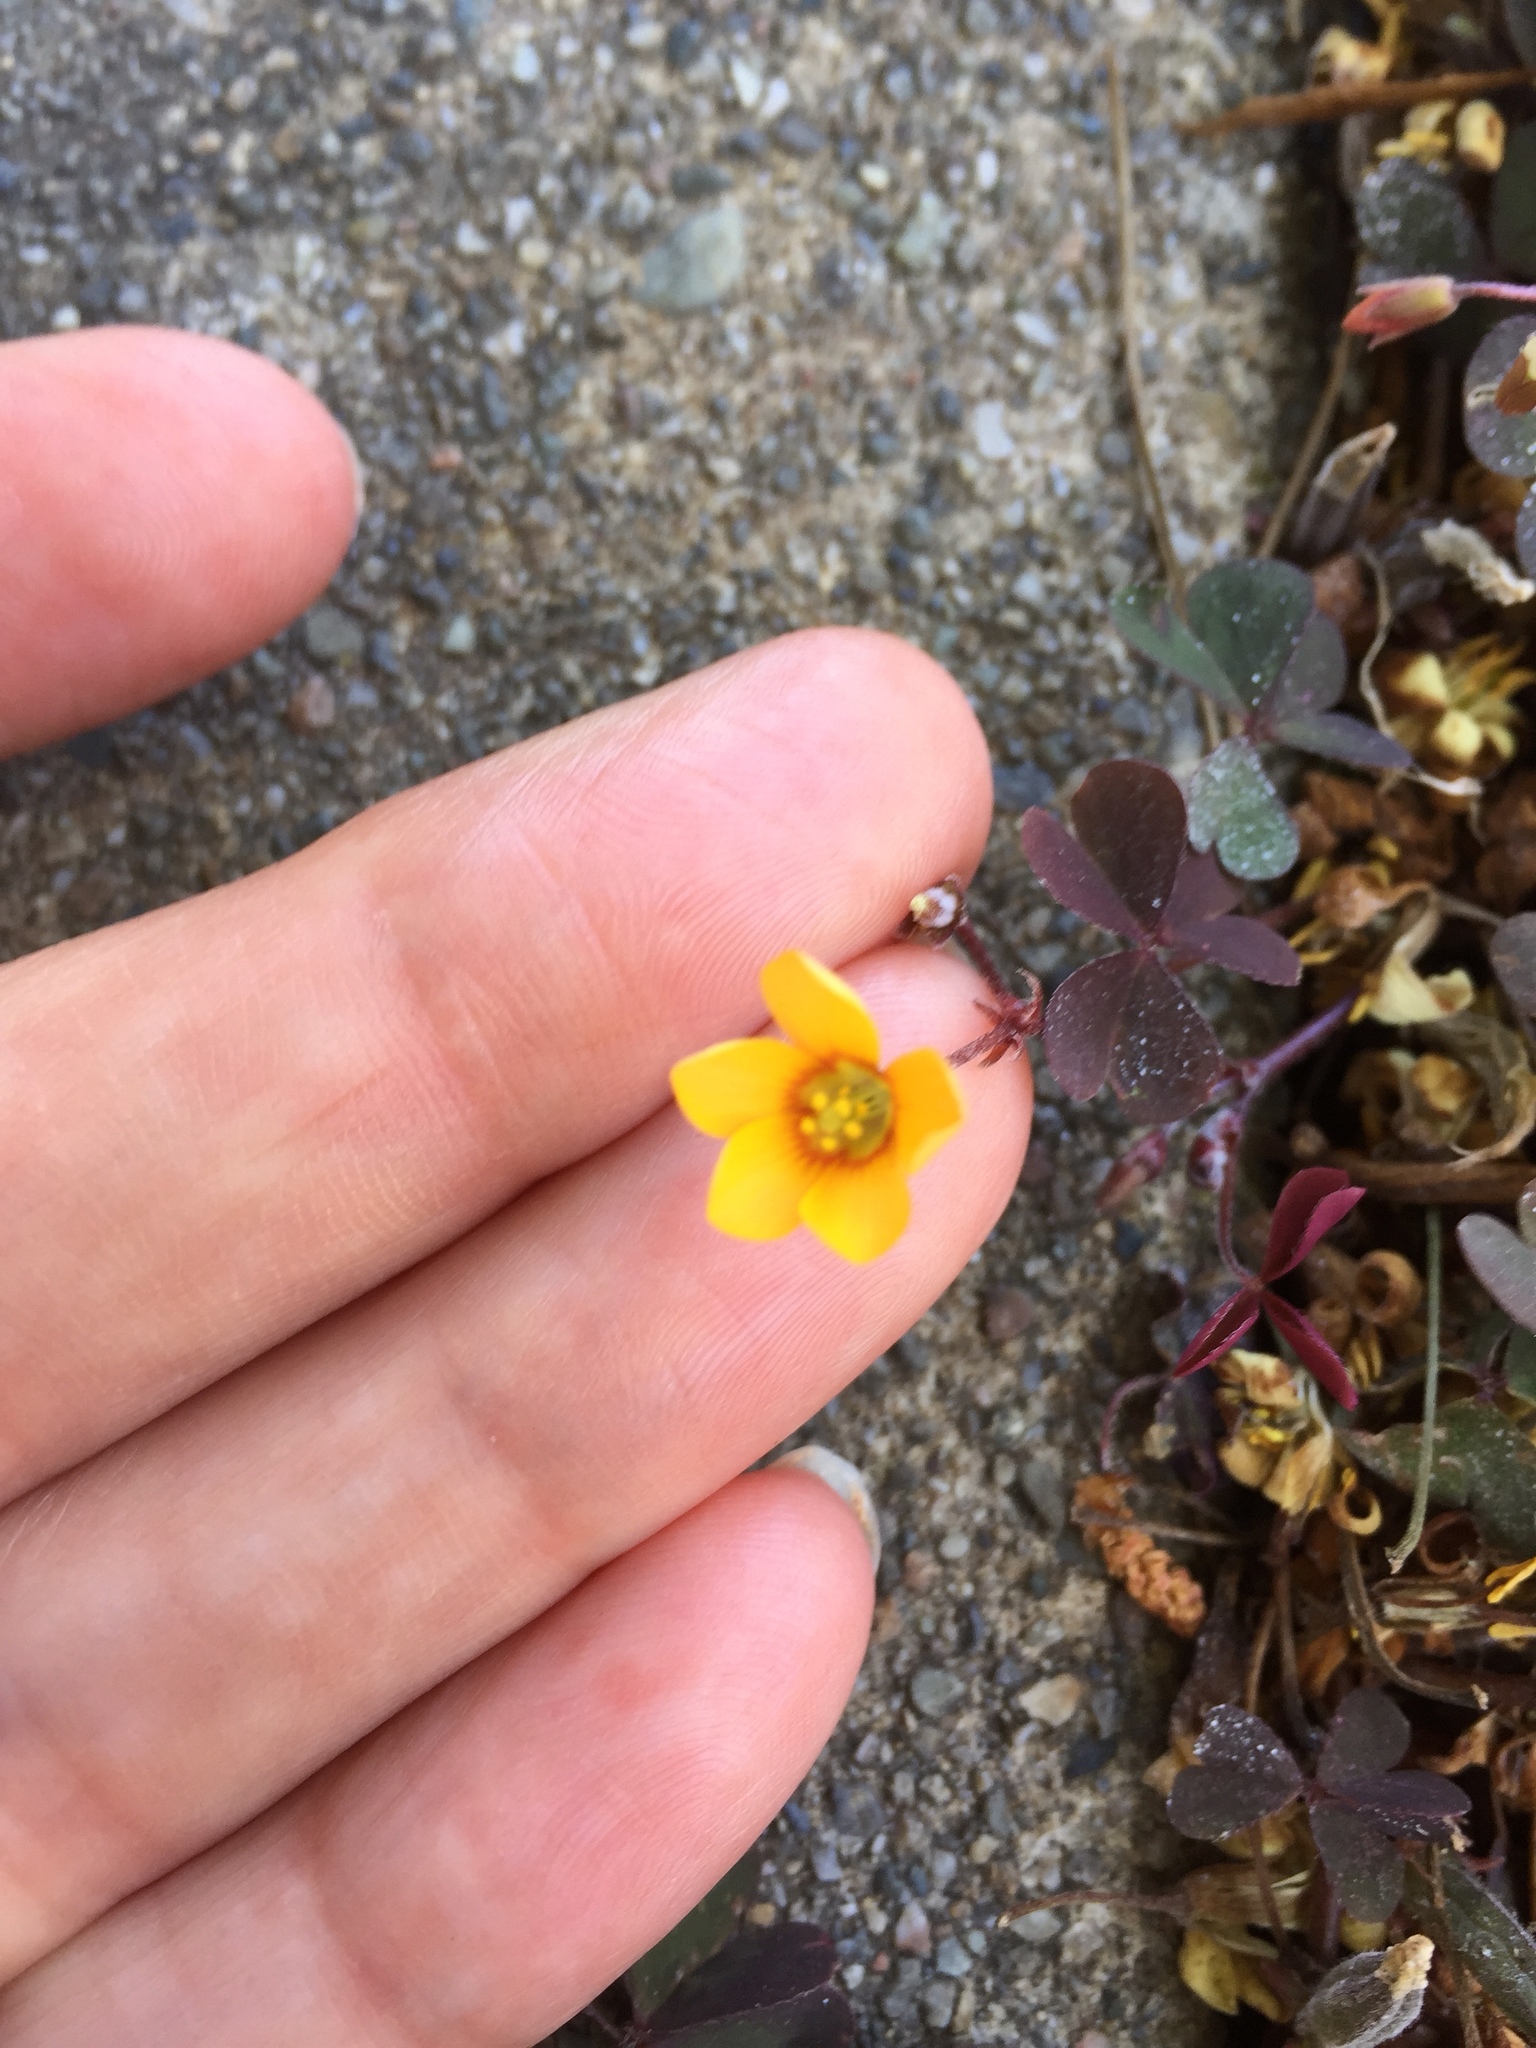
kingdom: Plantae
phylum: Tracheophyta
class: Magnoliopsida
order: Oxalidales
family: Oxalidaceae
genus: Oxalis
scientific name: Oxalis corniculata
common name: Procumbent yellow-sorrel
